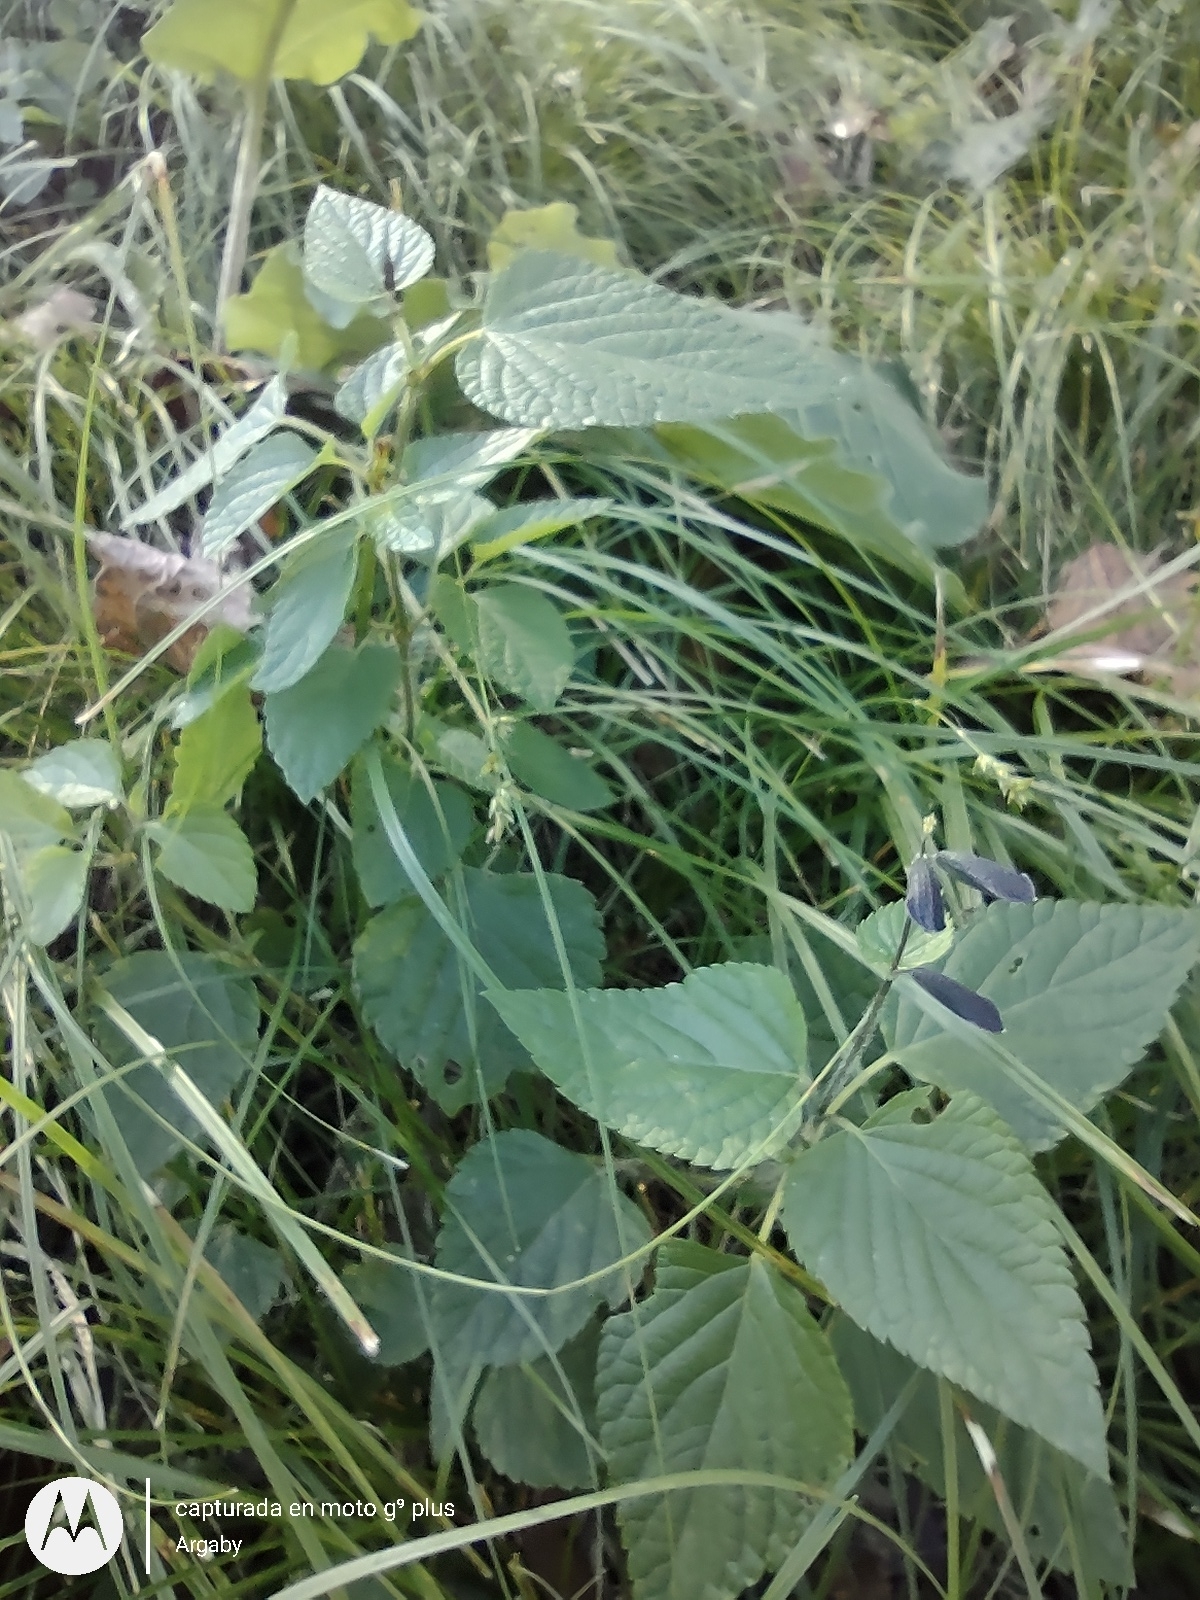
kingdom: Plantae
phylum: Tracheophyta
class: Magnoliopsida
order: Lamiales
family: Lamiaceae
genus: Salvia
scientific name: Salvia guaranitica
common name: Anise-scented sage
